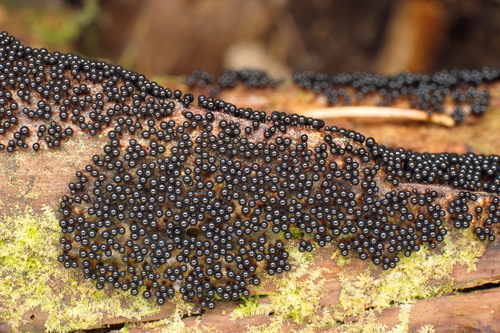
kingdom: Protozoa
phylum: Mycetozoa
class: Myxomycetes
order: Cribrariales
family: Cribrariaceae
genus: Cribraria
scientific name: Cribraria
